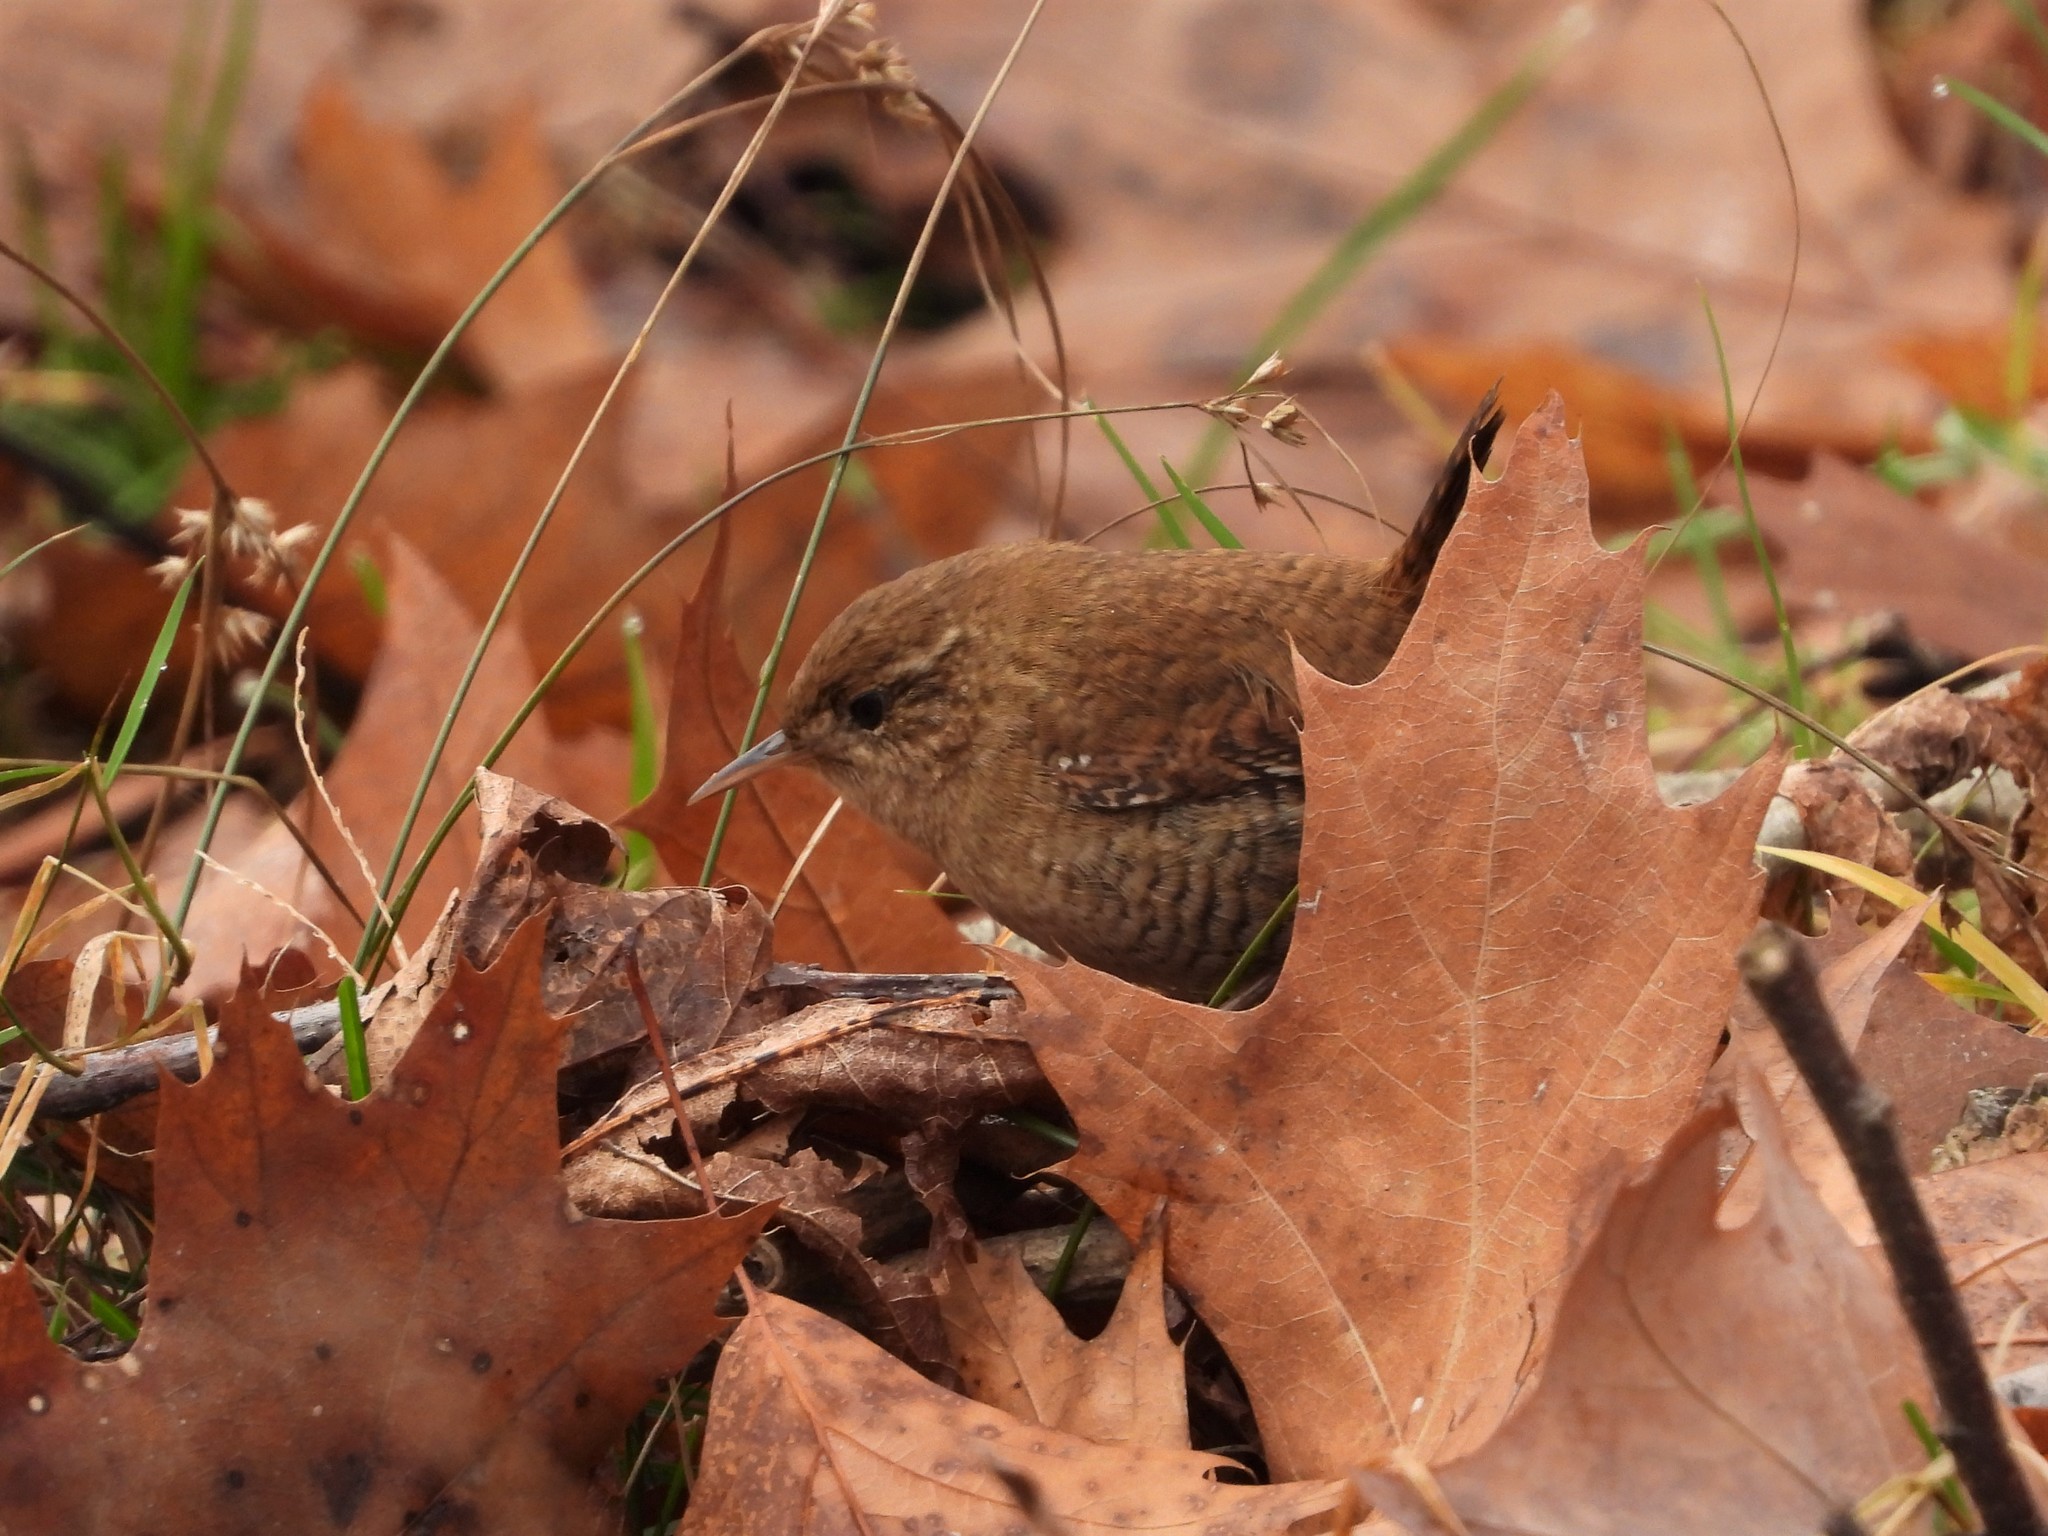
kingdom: Animalia
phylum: Chordata
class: Aves
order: Passeriformes
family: Troglodytidae
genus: Troglodytes
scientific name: Troglodytes troglodytes
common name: Eurasian wren
